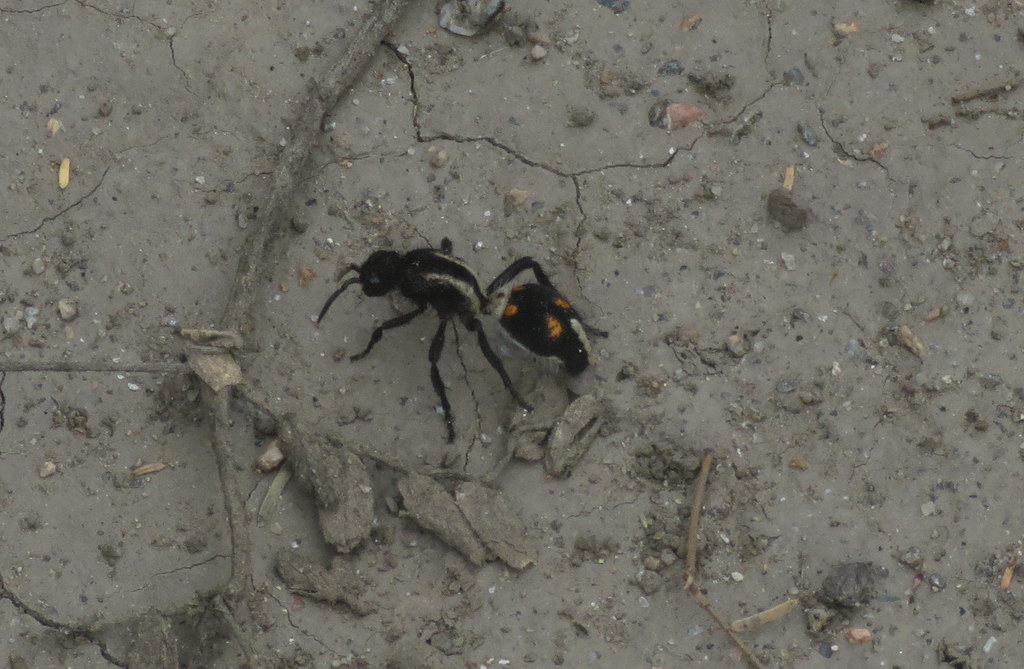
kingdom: Animalia
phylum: Arthropoda
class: Insecta
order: Hymenoptera
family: Mutillidae
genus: Traumatomutilla
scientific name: Traumatomutilla
